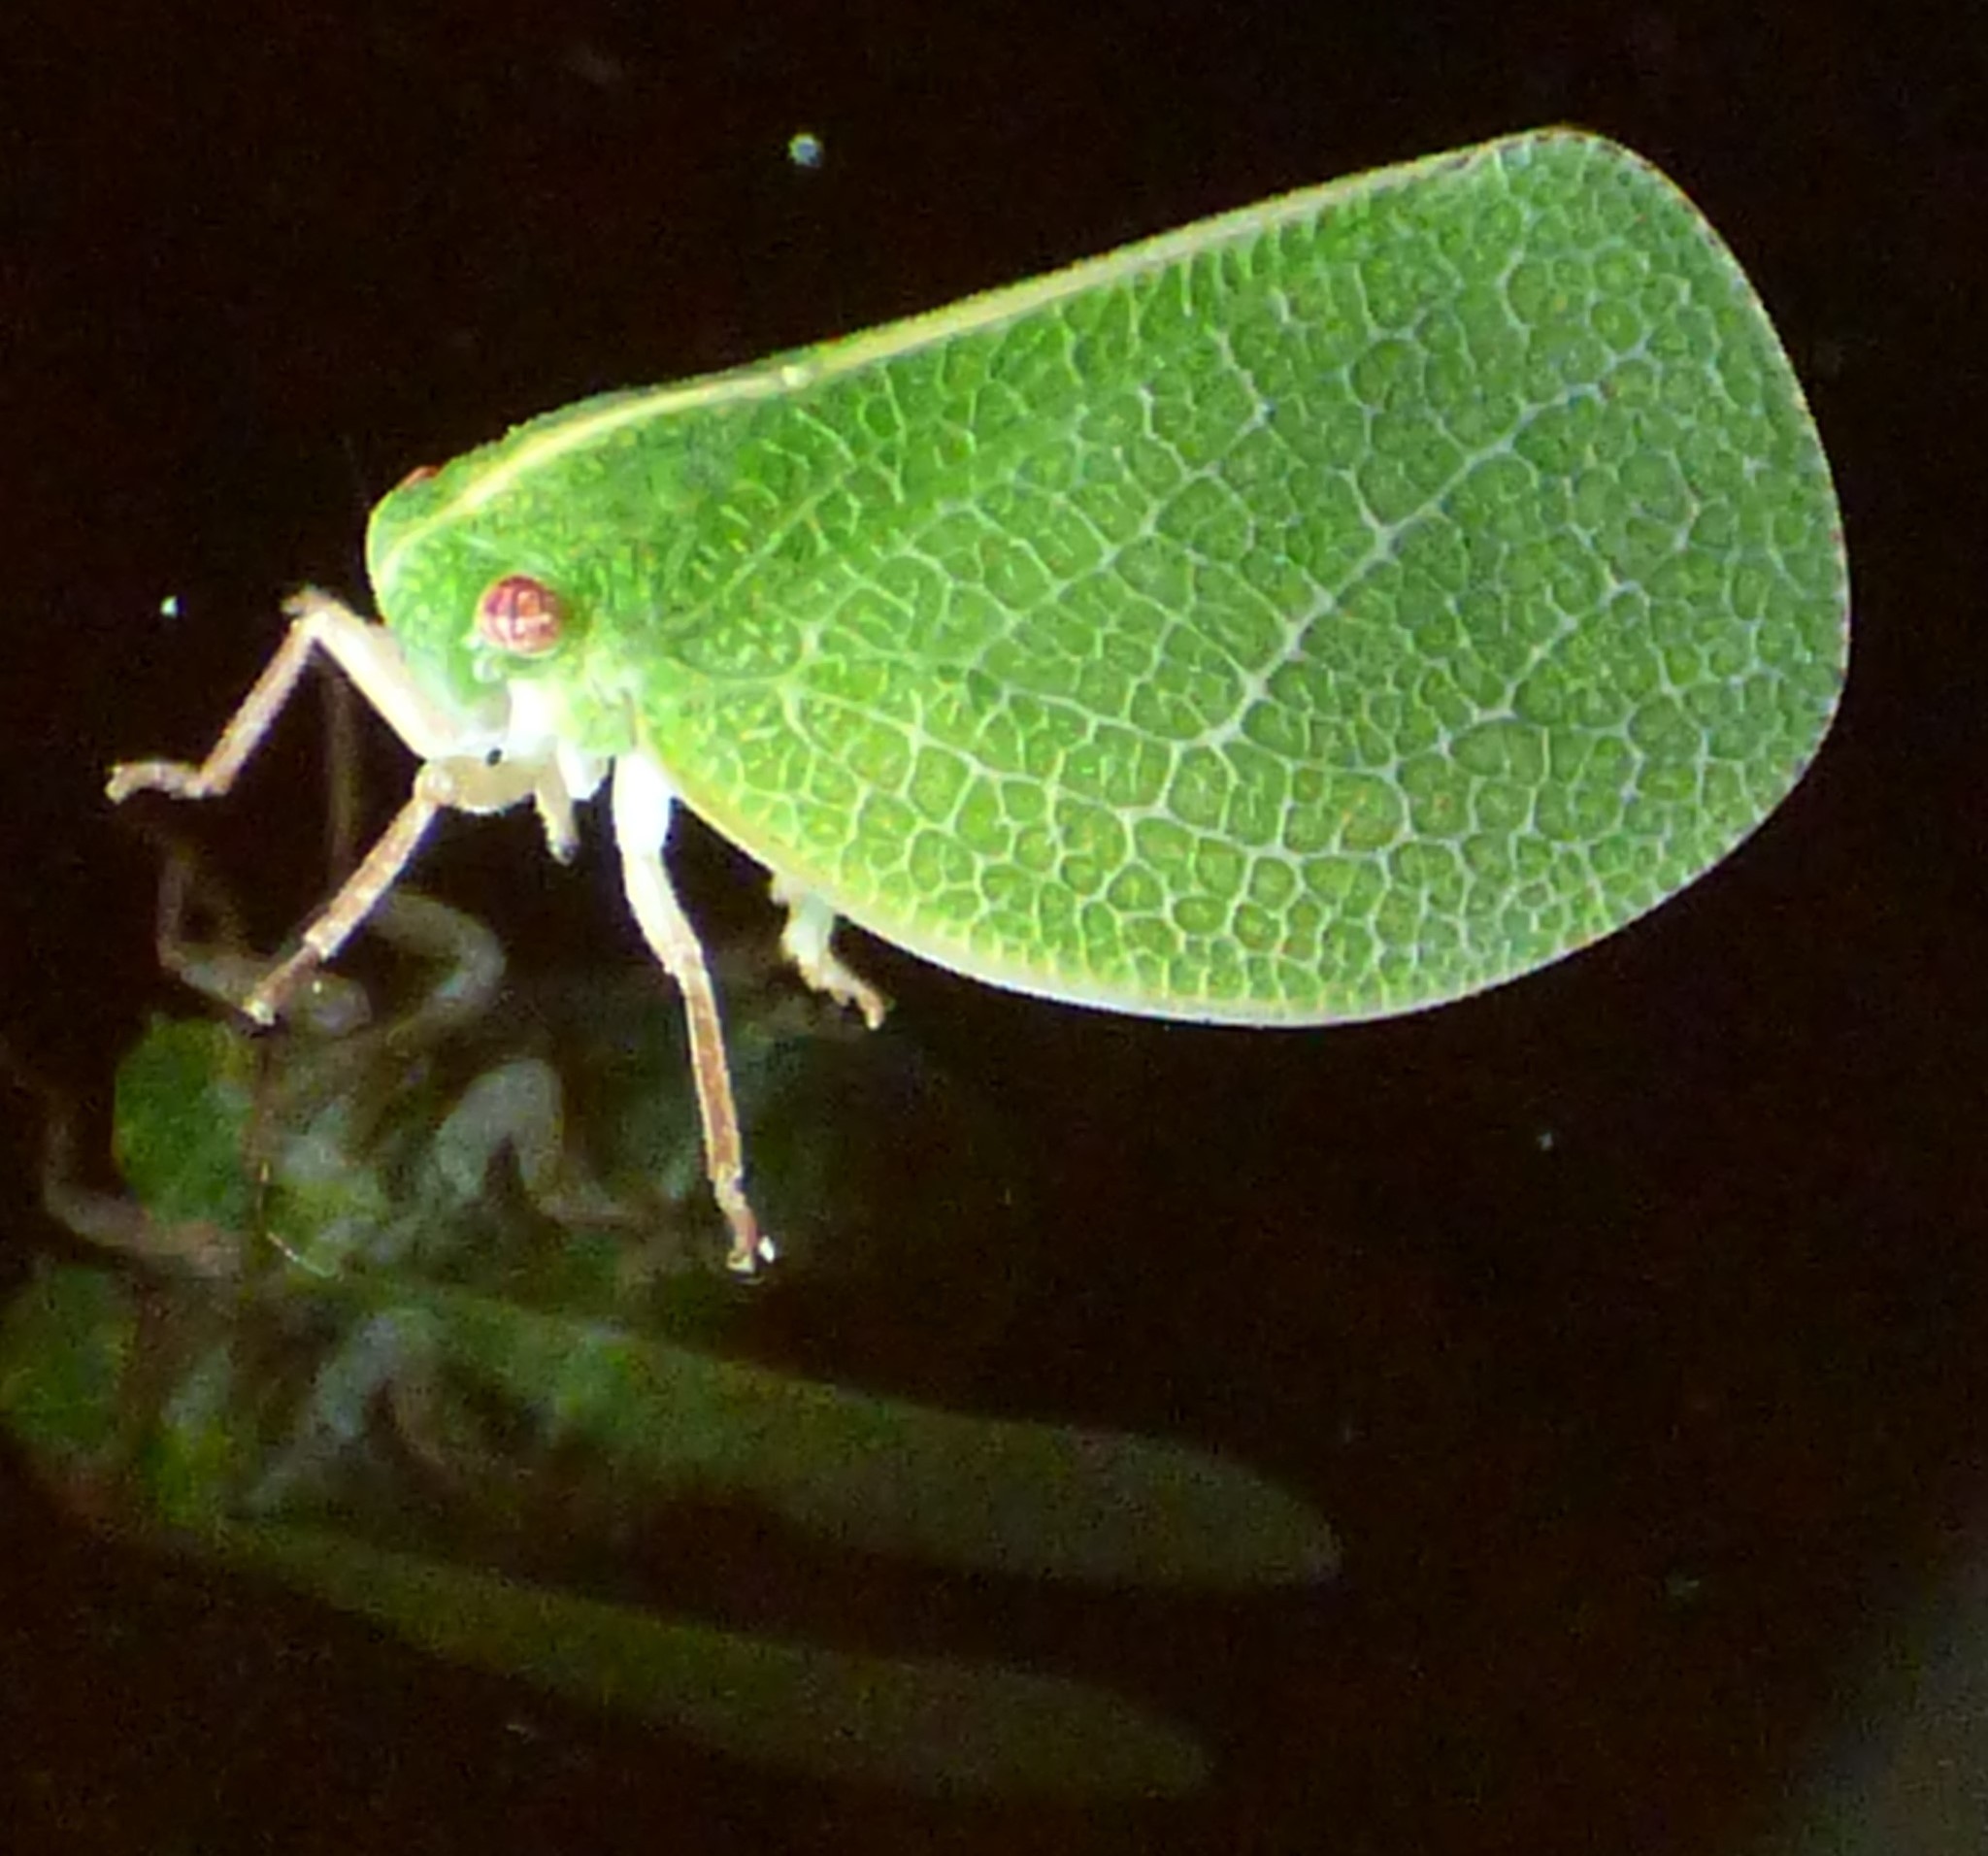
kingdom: Animalia
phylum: Arthropoda
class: Insecta
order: Hemiptera
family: Acanaloniidae
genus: Acanalonia
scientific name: Acanalonia servillei
